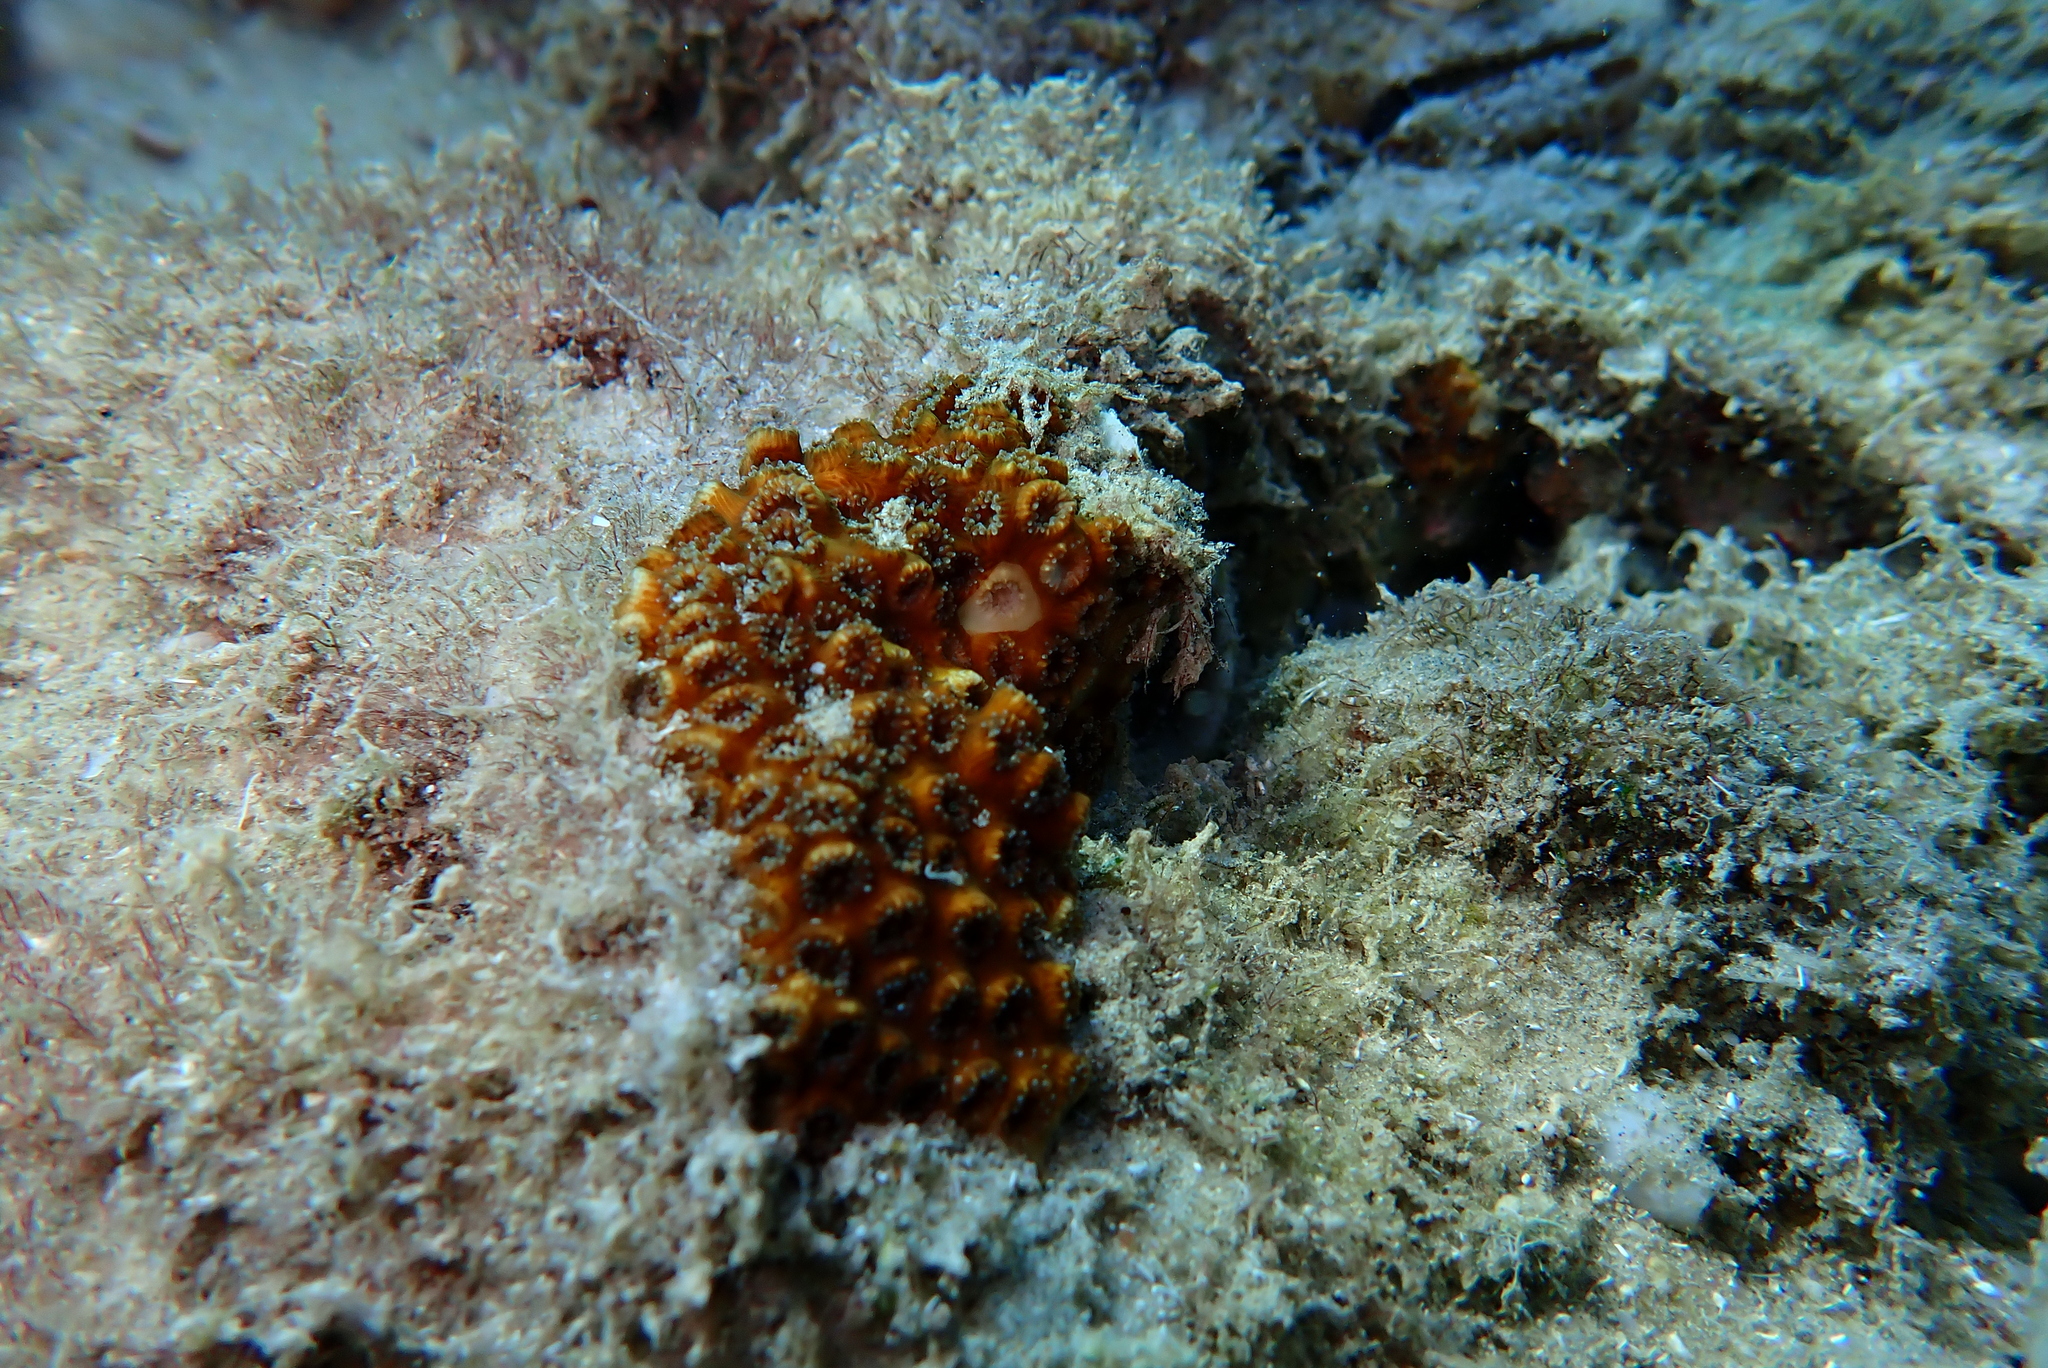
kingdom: Animalia
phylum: Cnidaria
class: Anthozoa
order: Scleractinia
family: Oculinidae
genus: Oculina
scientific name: Oculina patagonica
